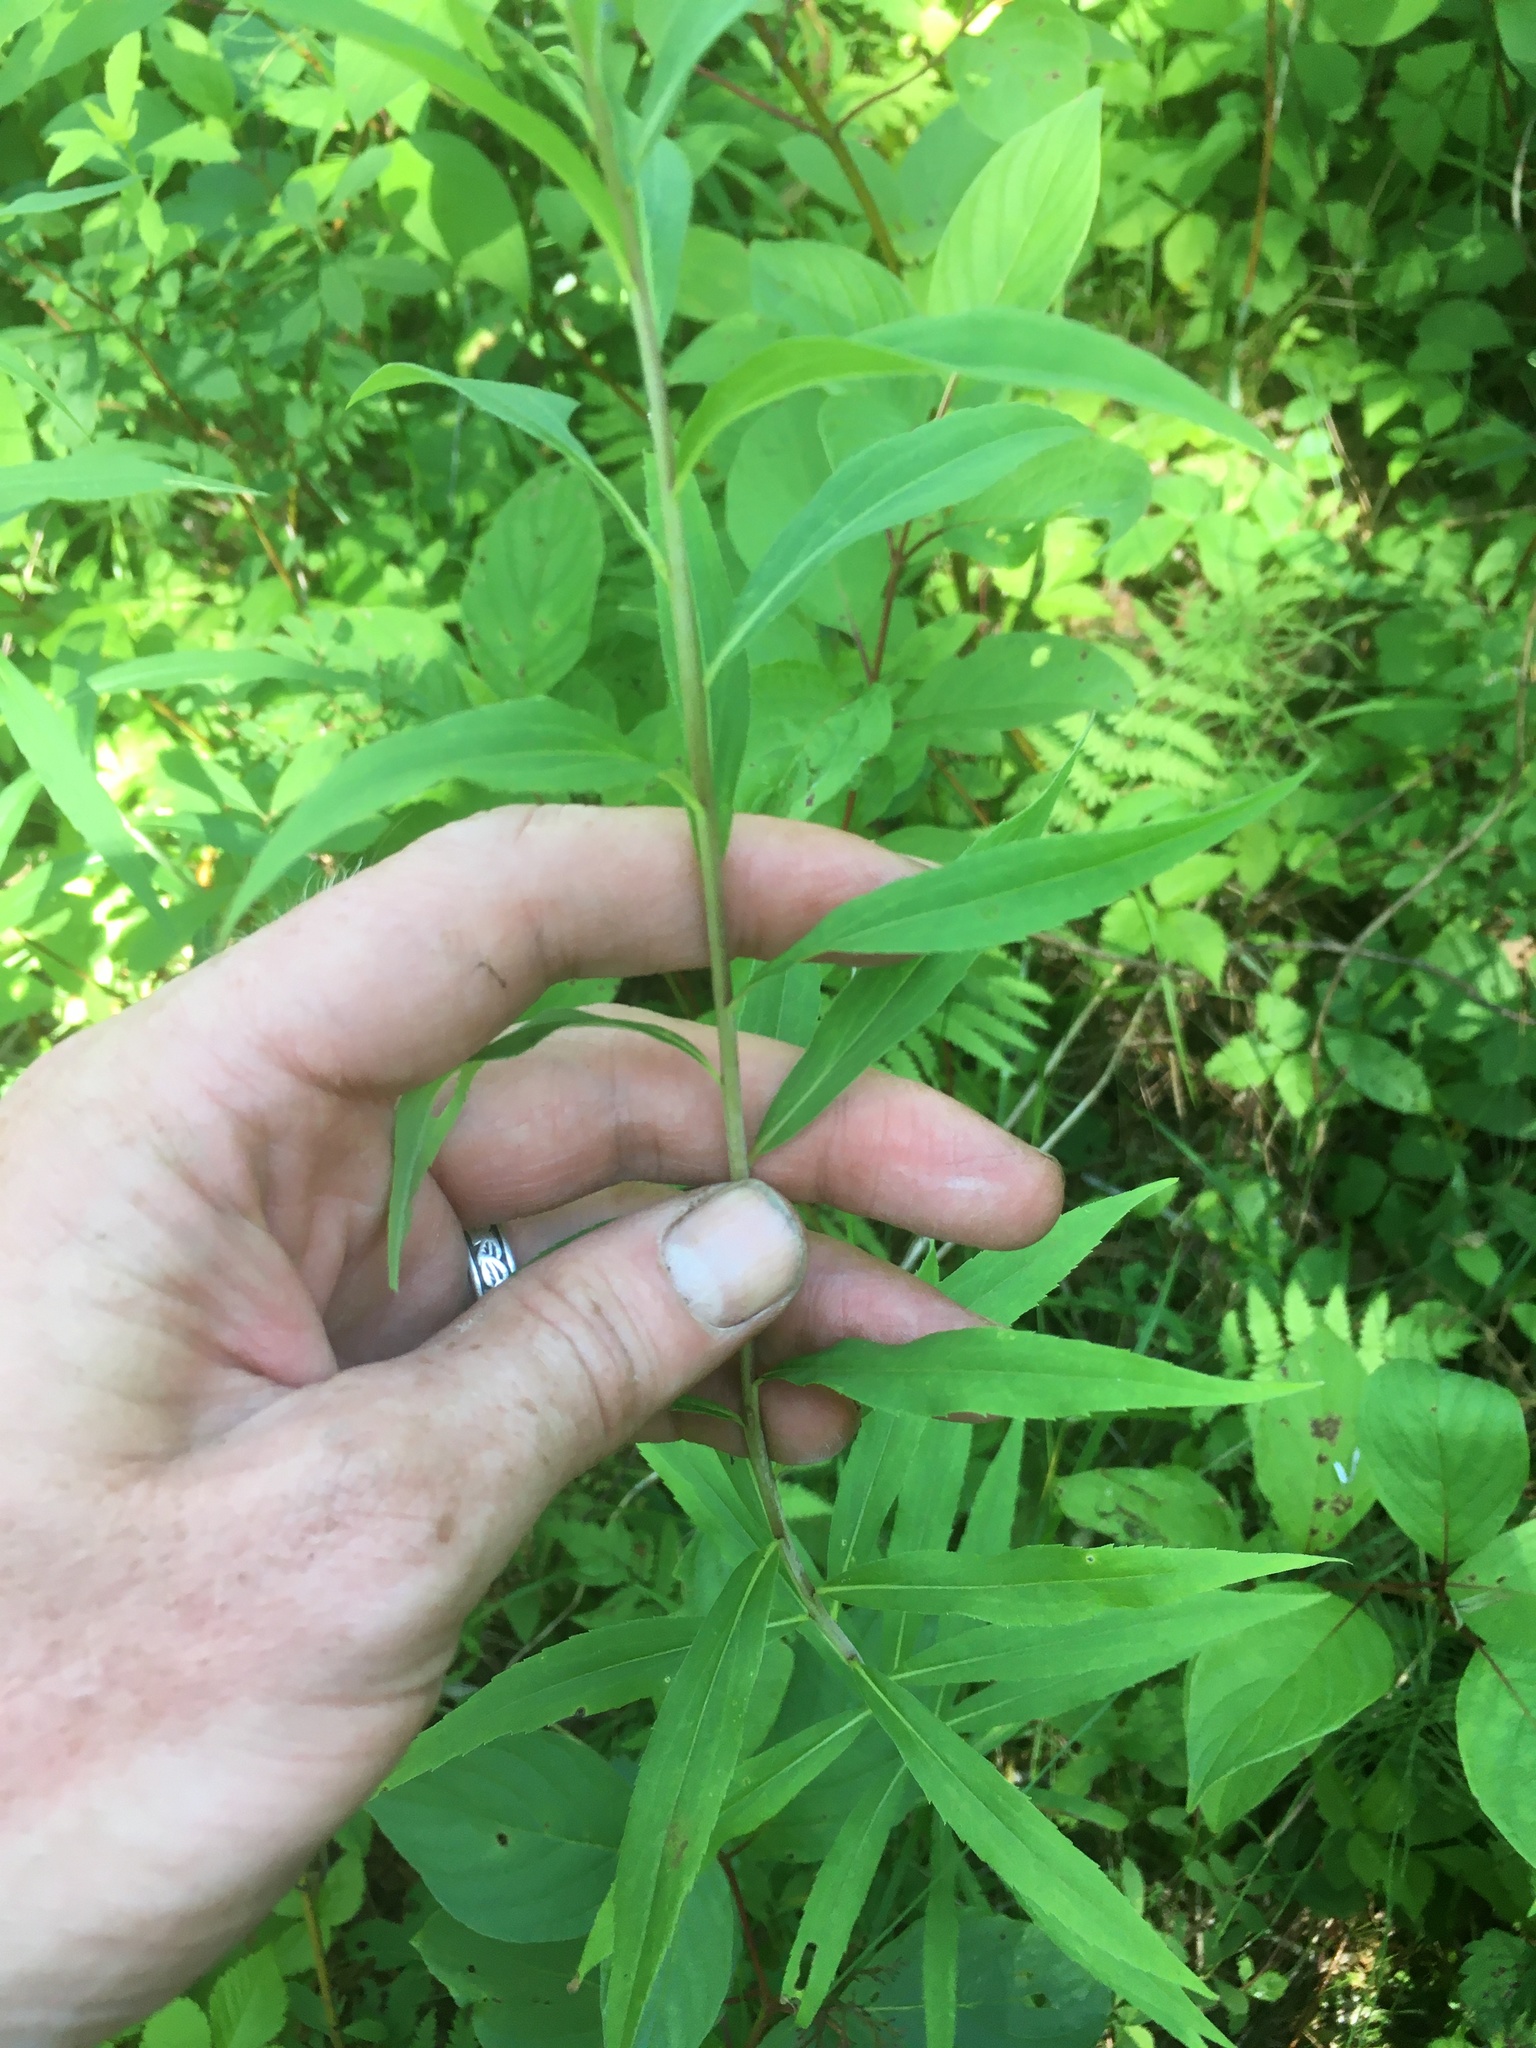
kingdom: Plantae
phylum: Tracheophyta
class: Magnoliopsida
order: Asterales
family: Asteraceae
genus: Solidago
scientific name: Solidago gigantea
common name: Giant goldenrod
